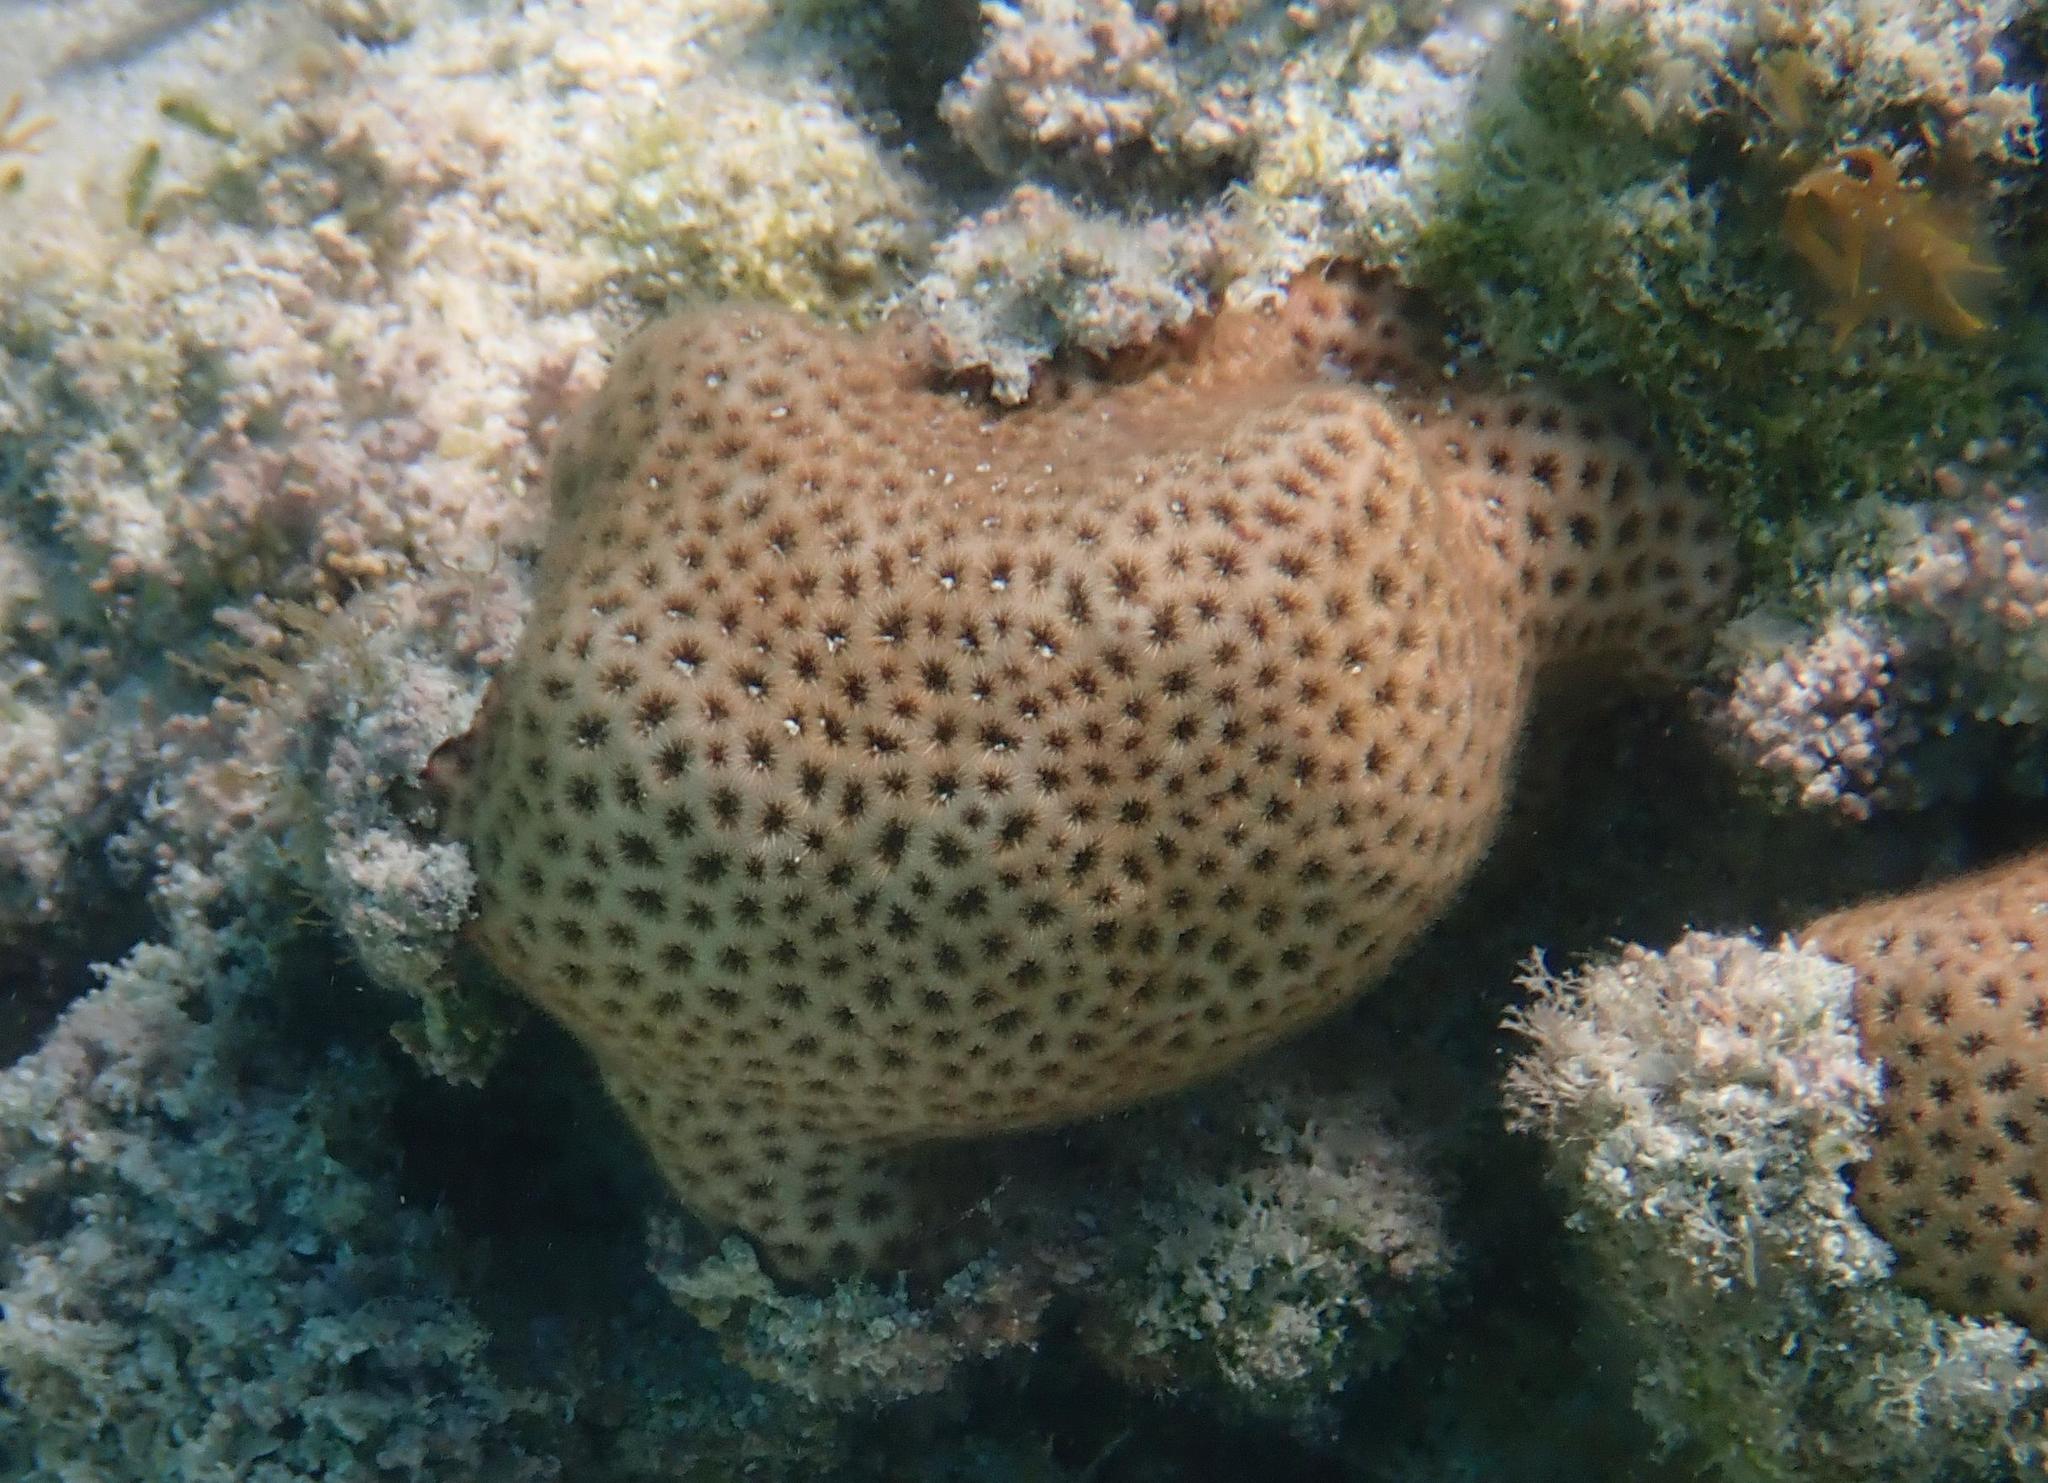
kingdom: Animalia
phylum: Cnidaria
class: Anthozoa
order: Scleractinia
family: Rhizangiidae
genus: Siderastrea
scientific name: Siderastrea radians
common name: Lesser starlet coral
